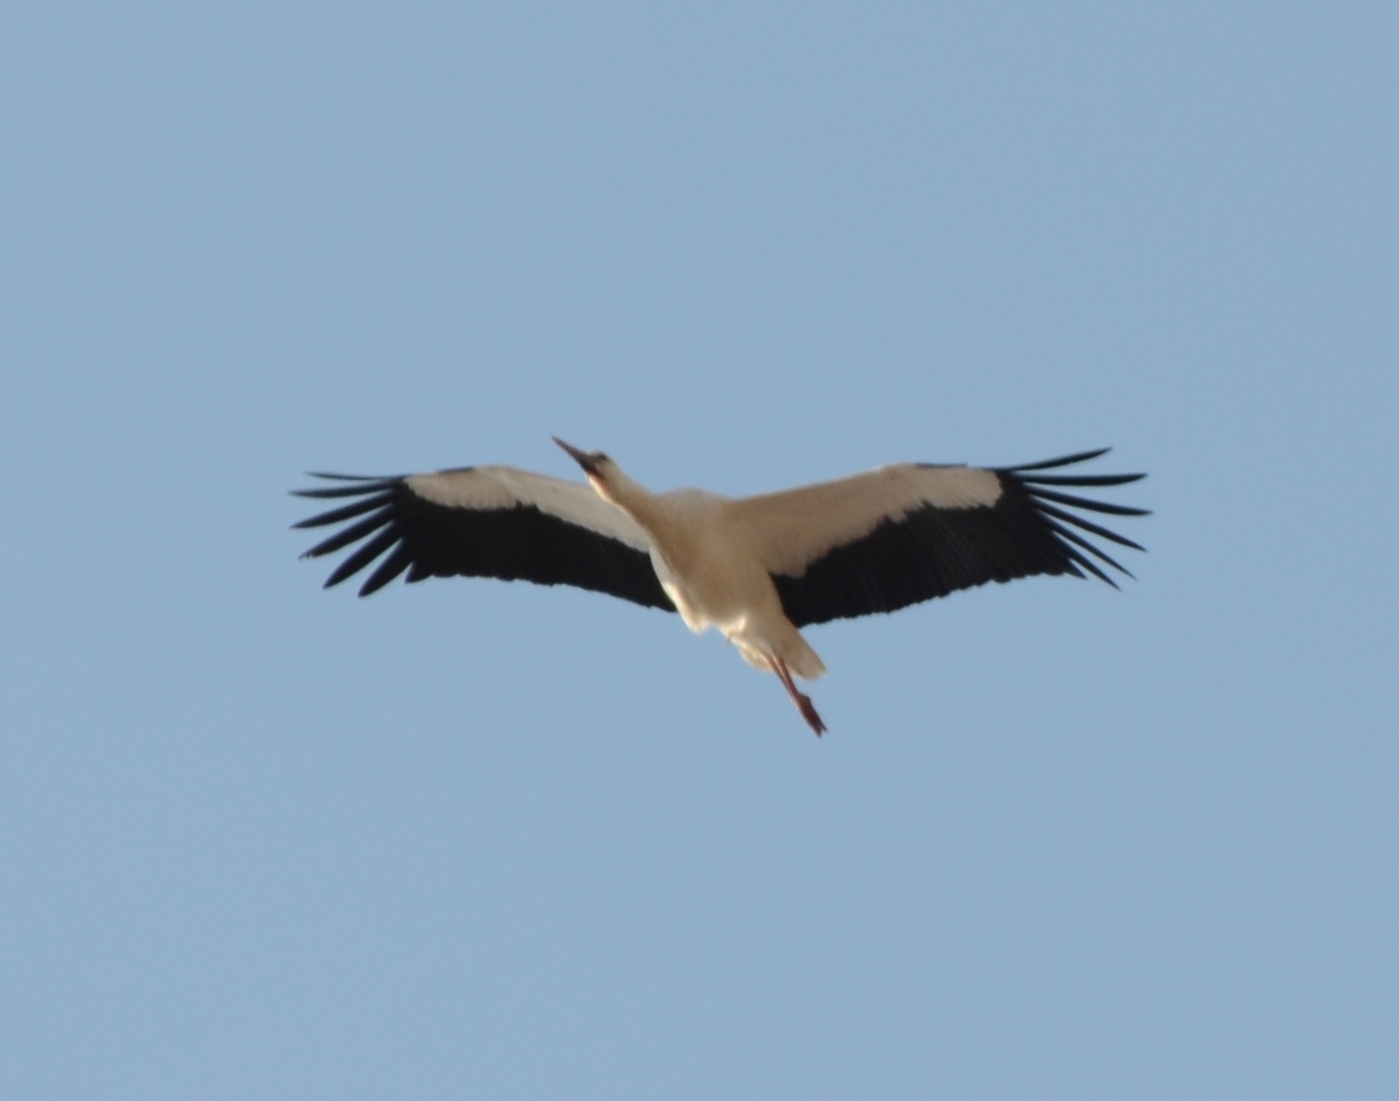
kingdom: Animalia
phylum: Chordata
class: Aves
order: Ciconiiformes
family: Ciconiidae
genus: Ciconia
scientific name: Ciconia ciconia
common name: White stork
